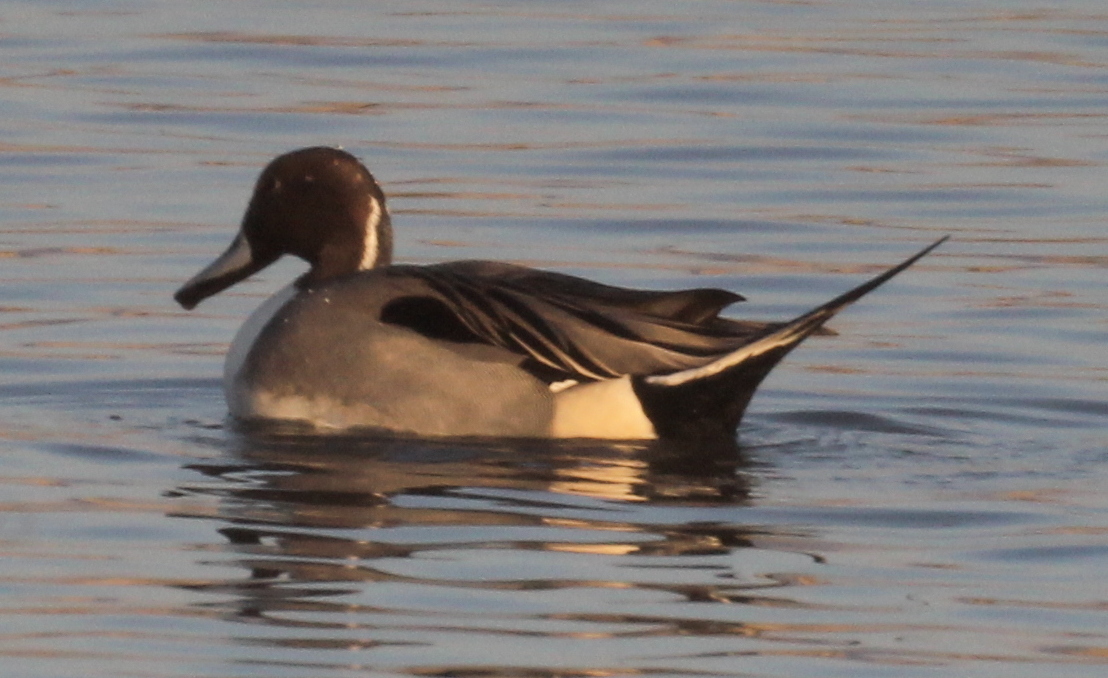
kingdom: Animalia
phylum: Chordata
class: Aves
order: Anseriformes
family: Anatidae
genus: Anas
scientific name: Anas acuta
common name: Northern pintail
